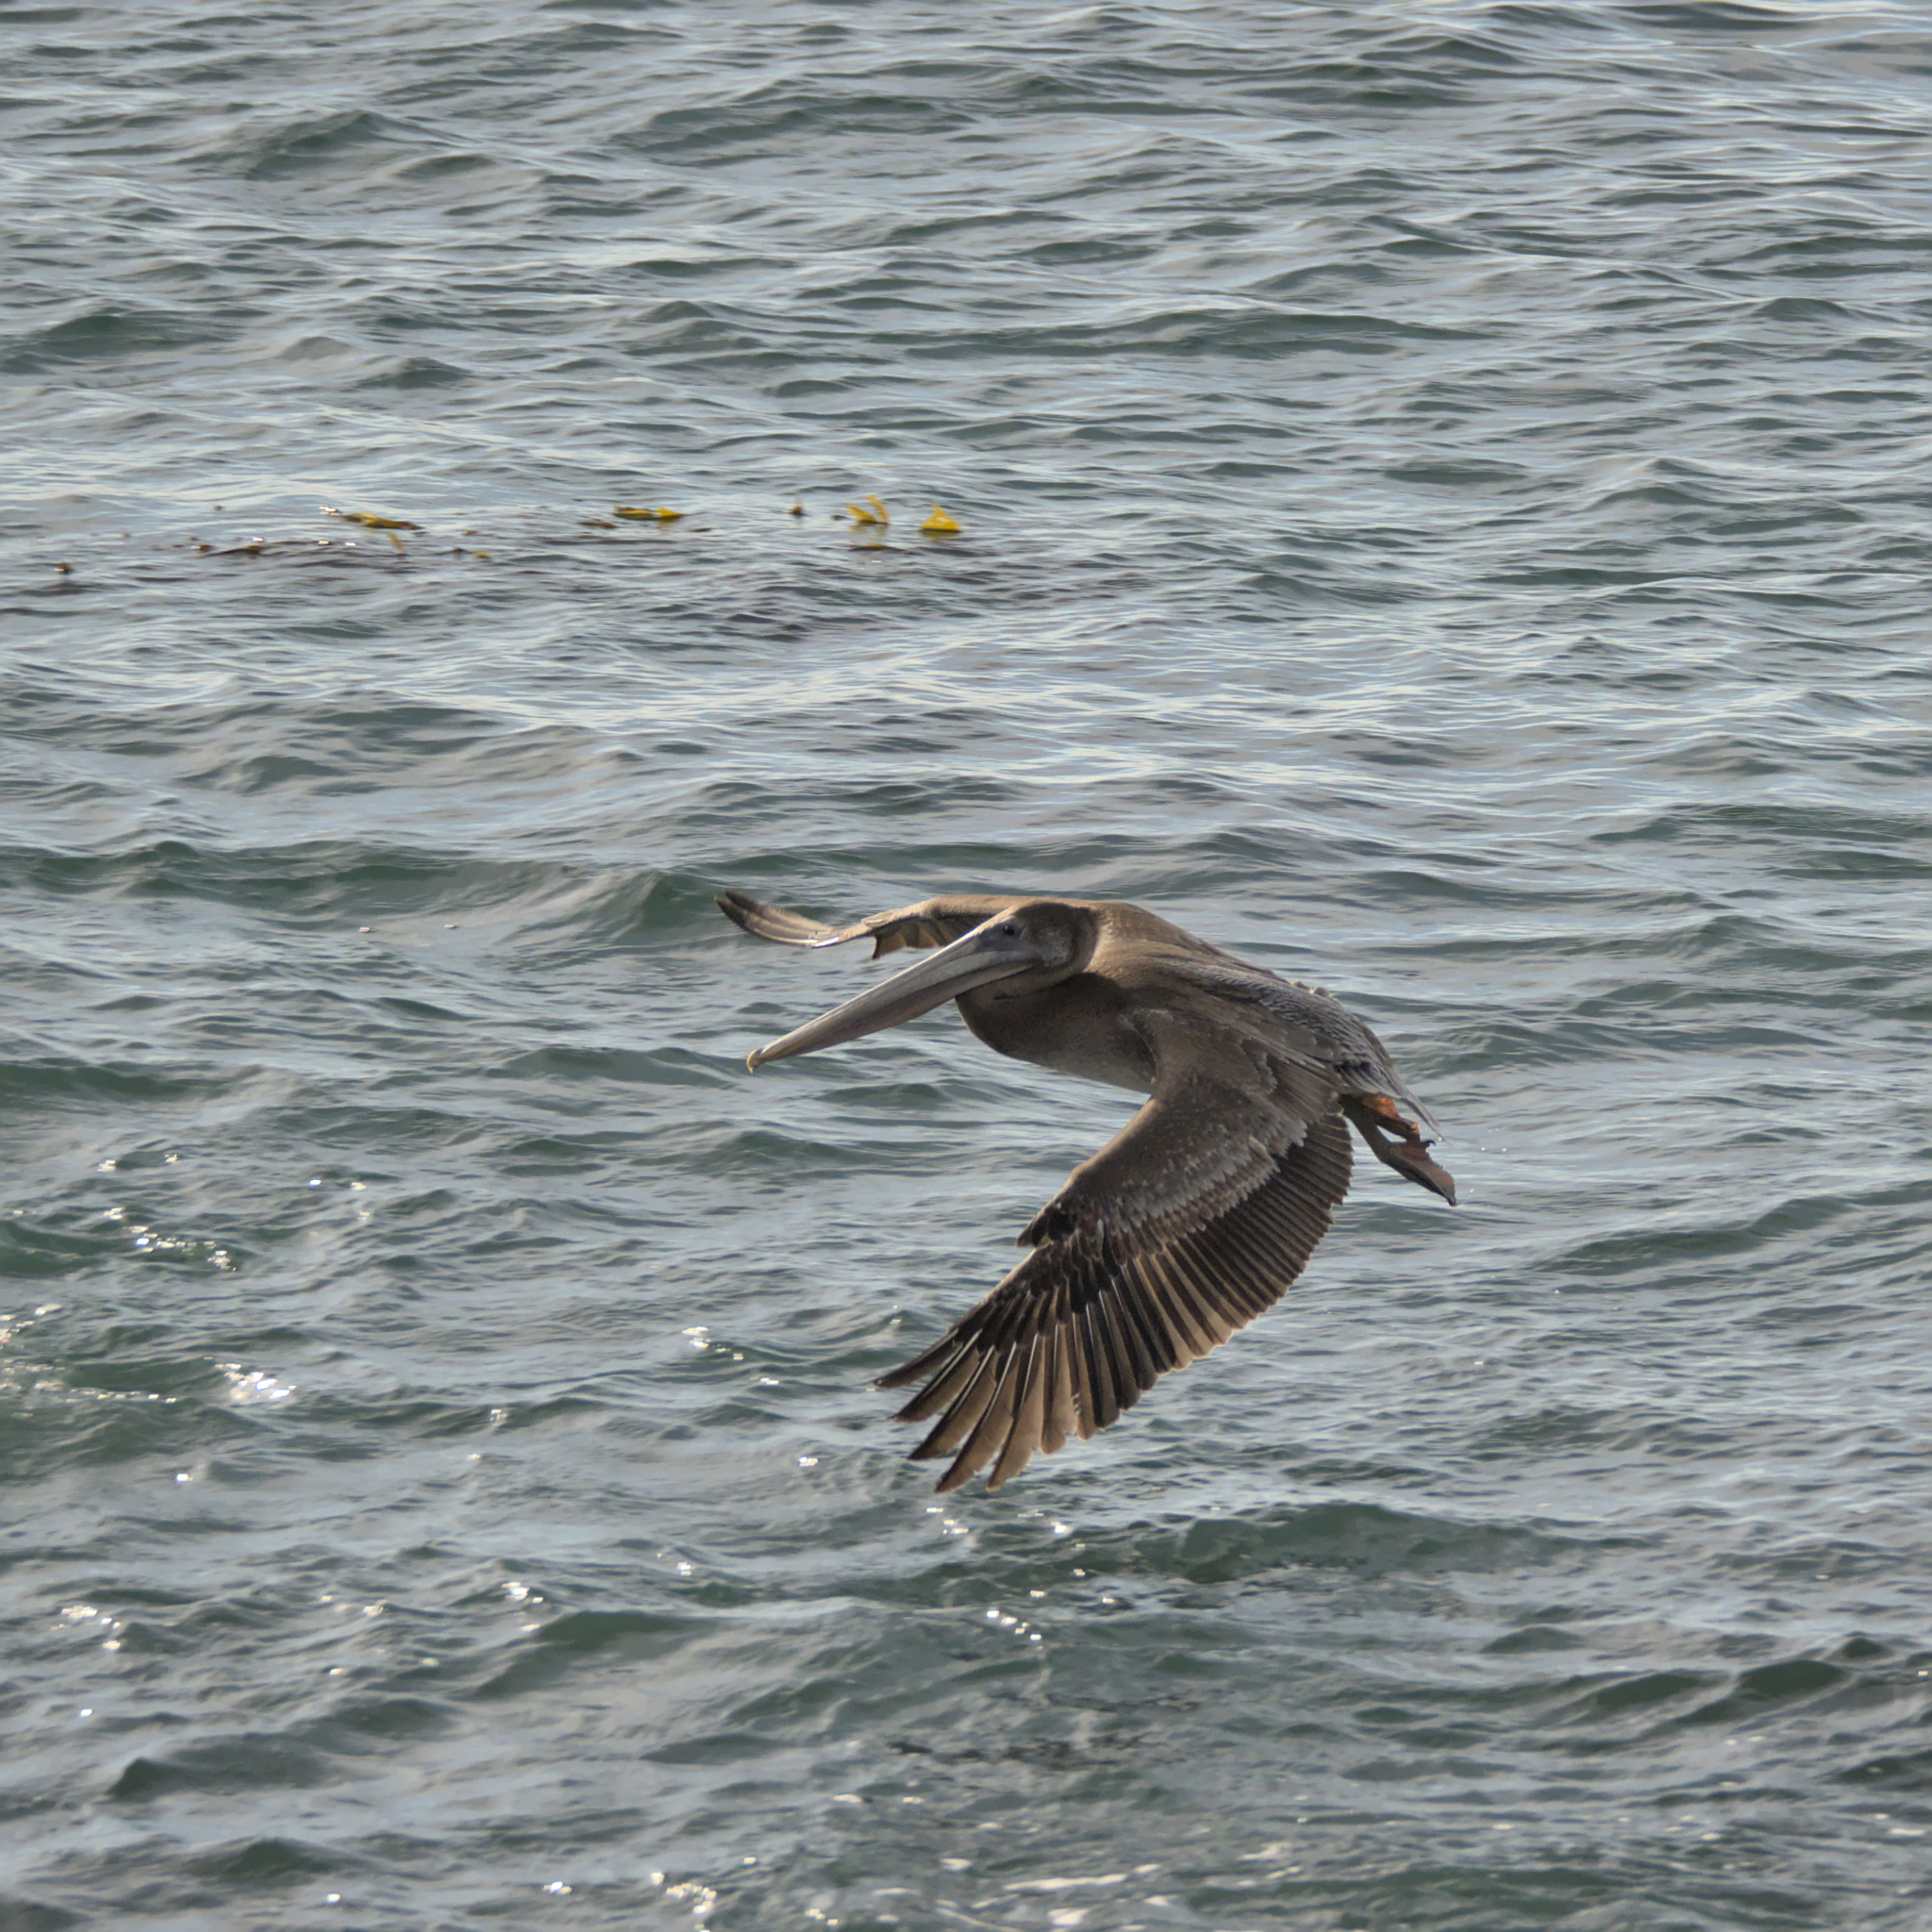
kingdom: Animalia
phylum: Chordata
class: Aves
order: Pelecaniformes
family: Pelecanidae
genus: Pelecanus
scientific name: Pelecanus occidentalis
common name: Brown pelican
